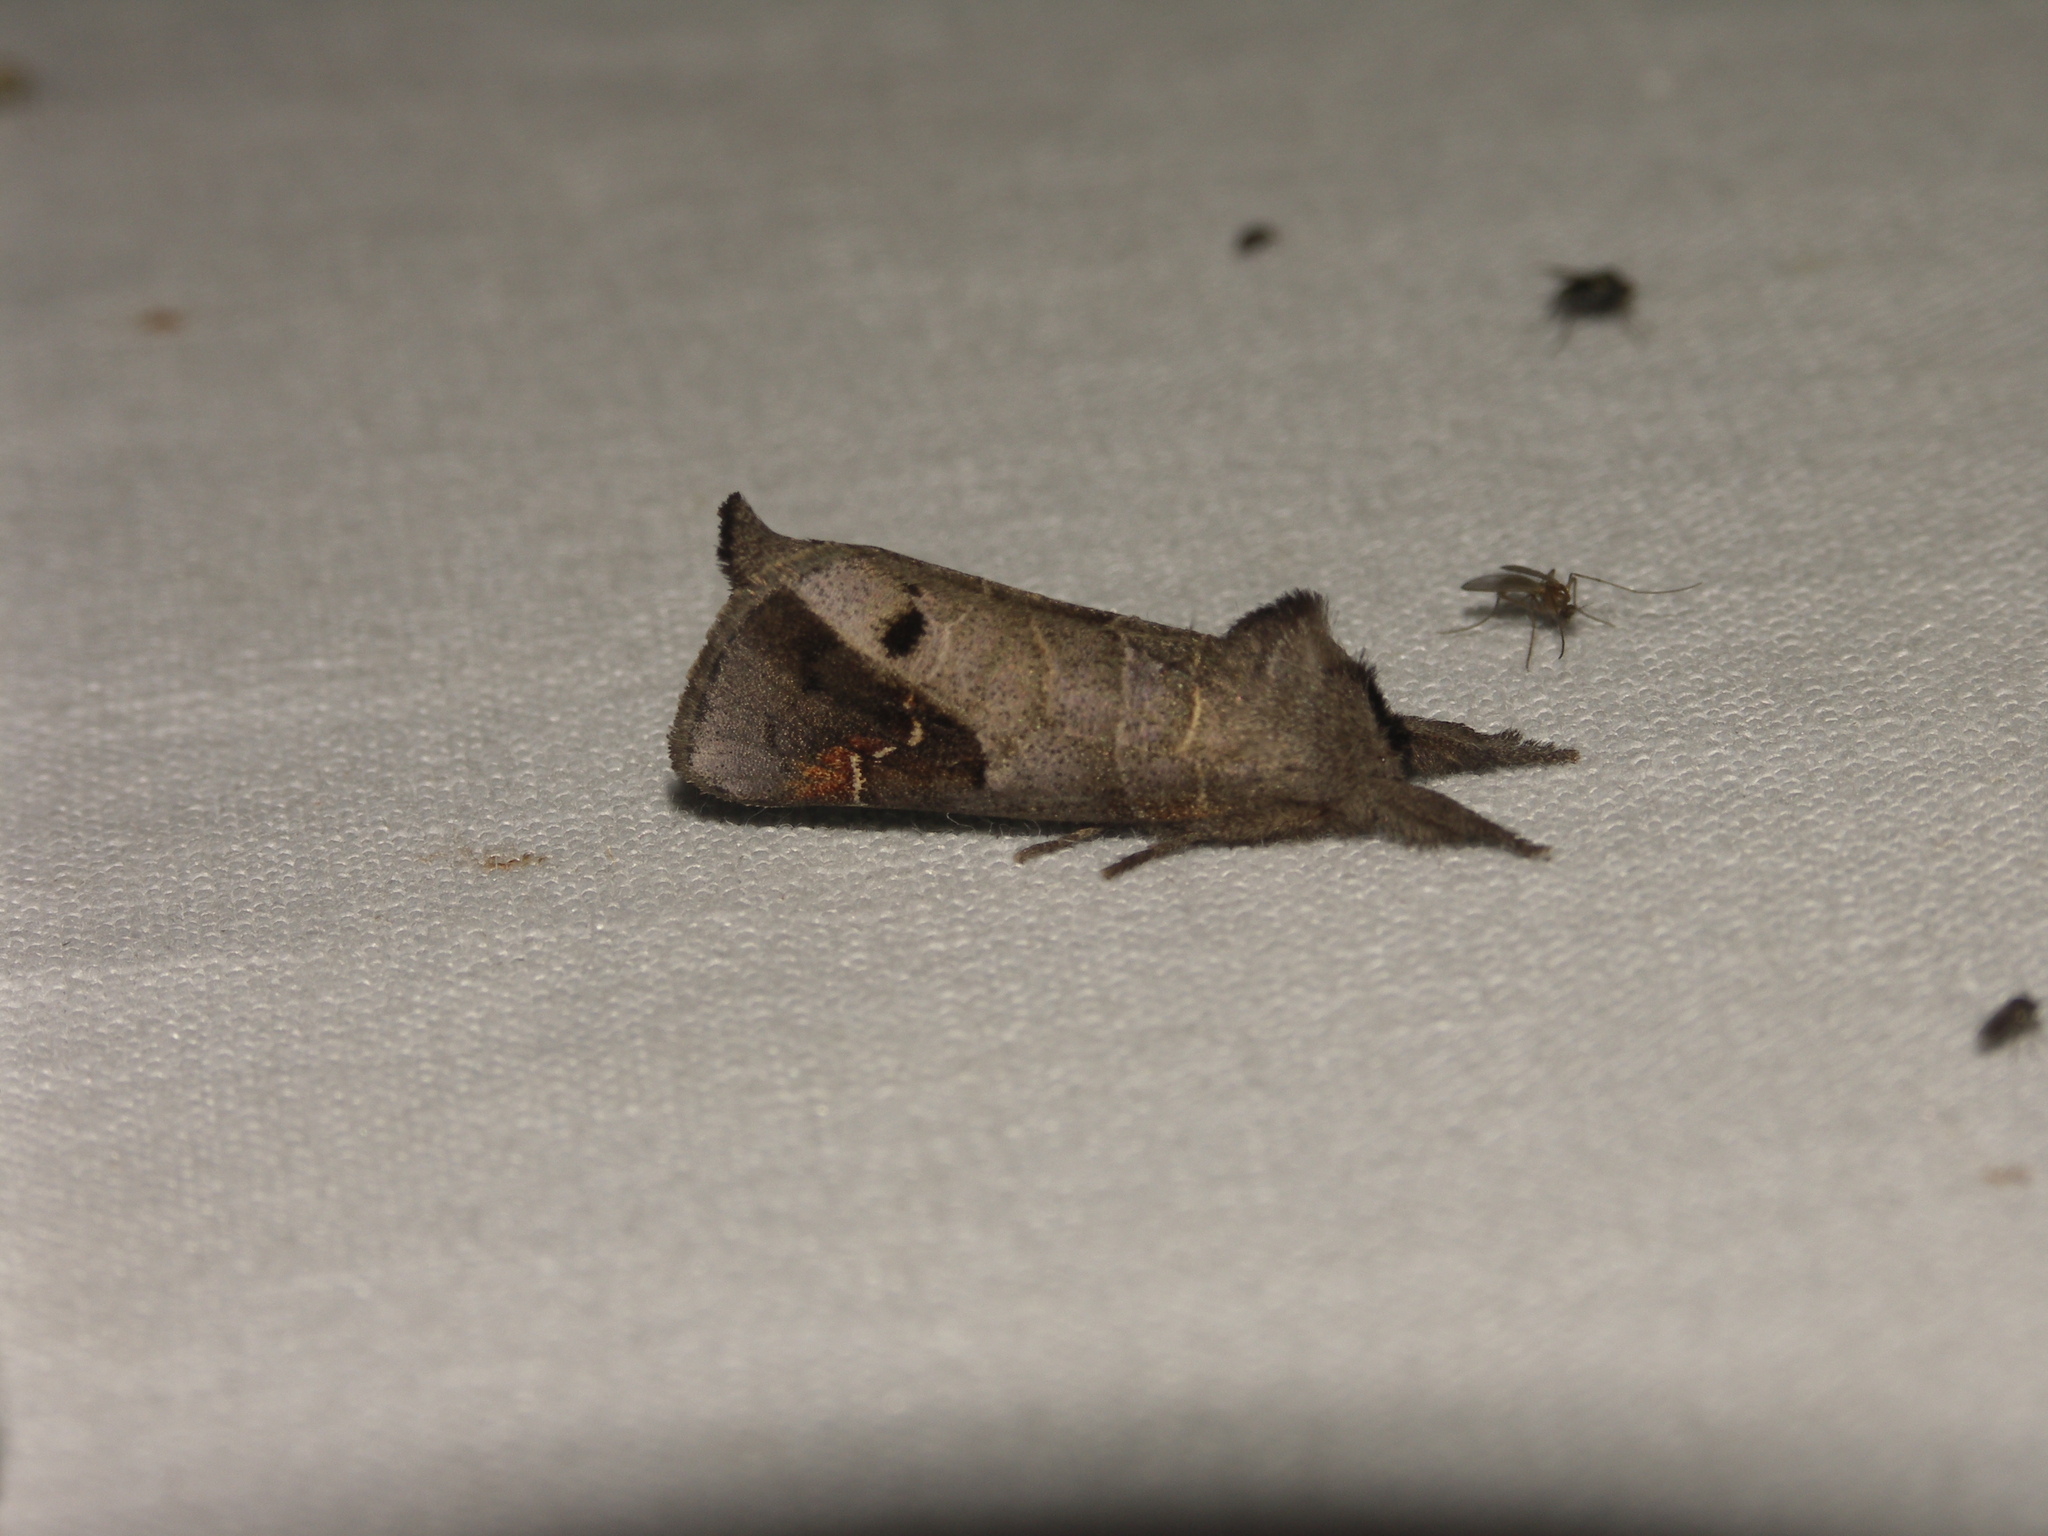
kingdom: Animalia
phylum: Arthropoda
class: Insecta
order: Lepidoptera
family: Notodontidae
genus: Clostera
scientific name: Clostera anachoreta
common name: Scarce chocolate-tip
